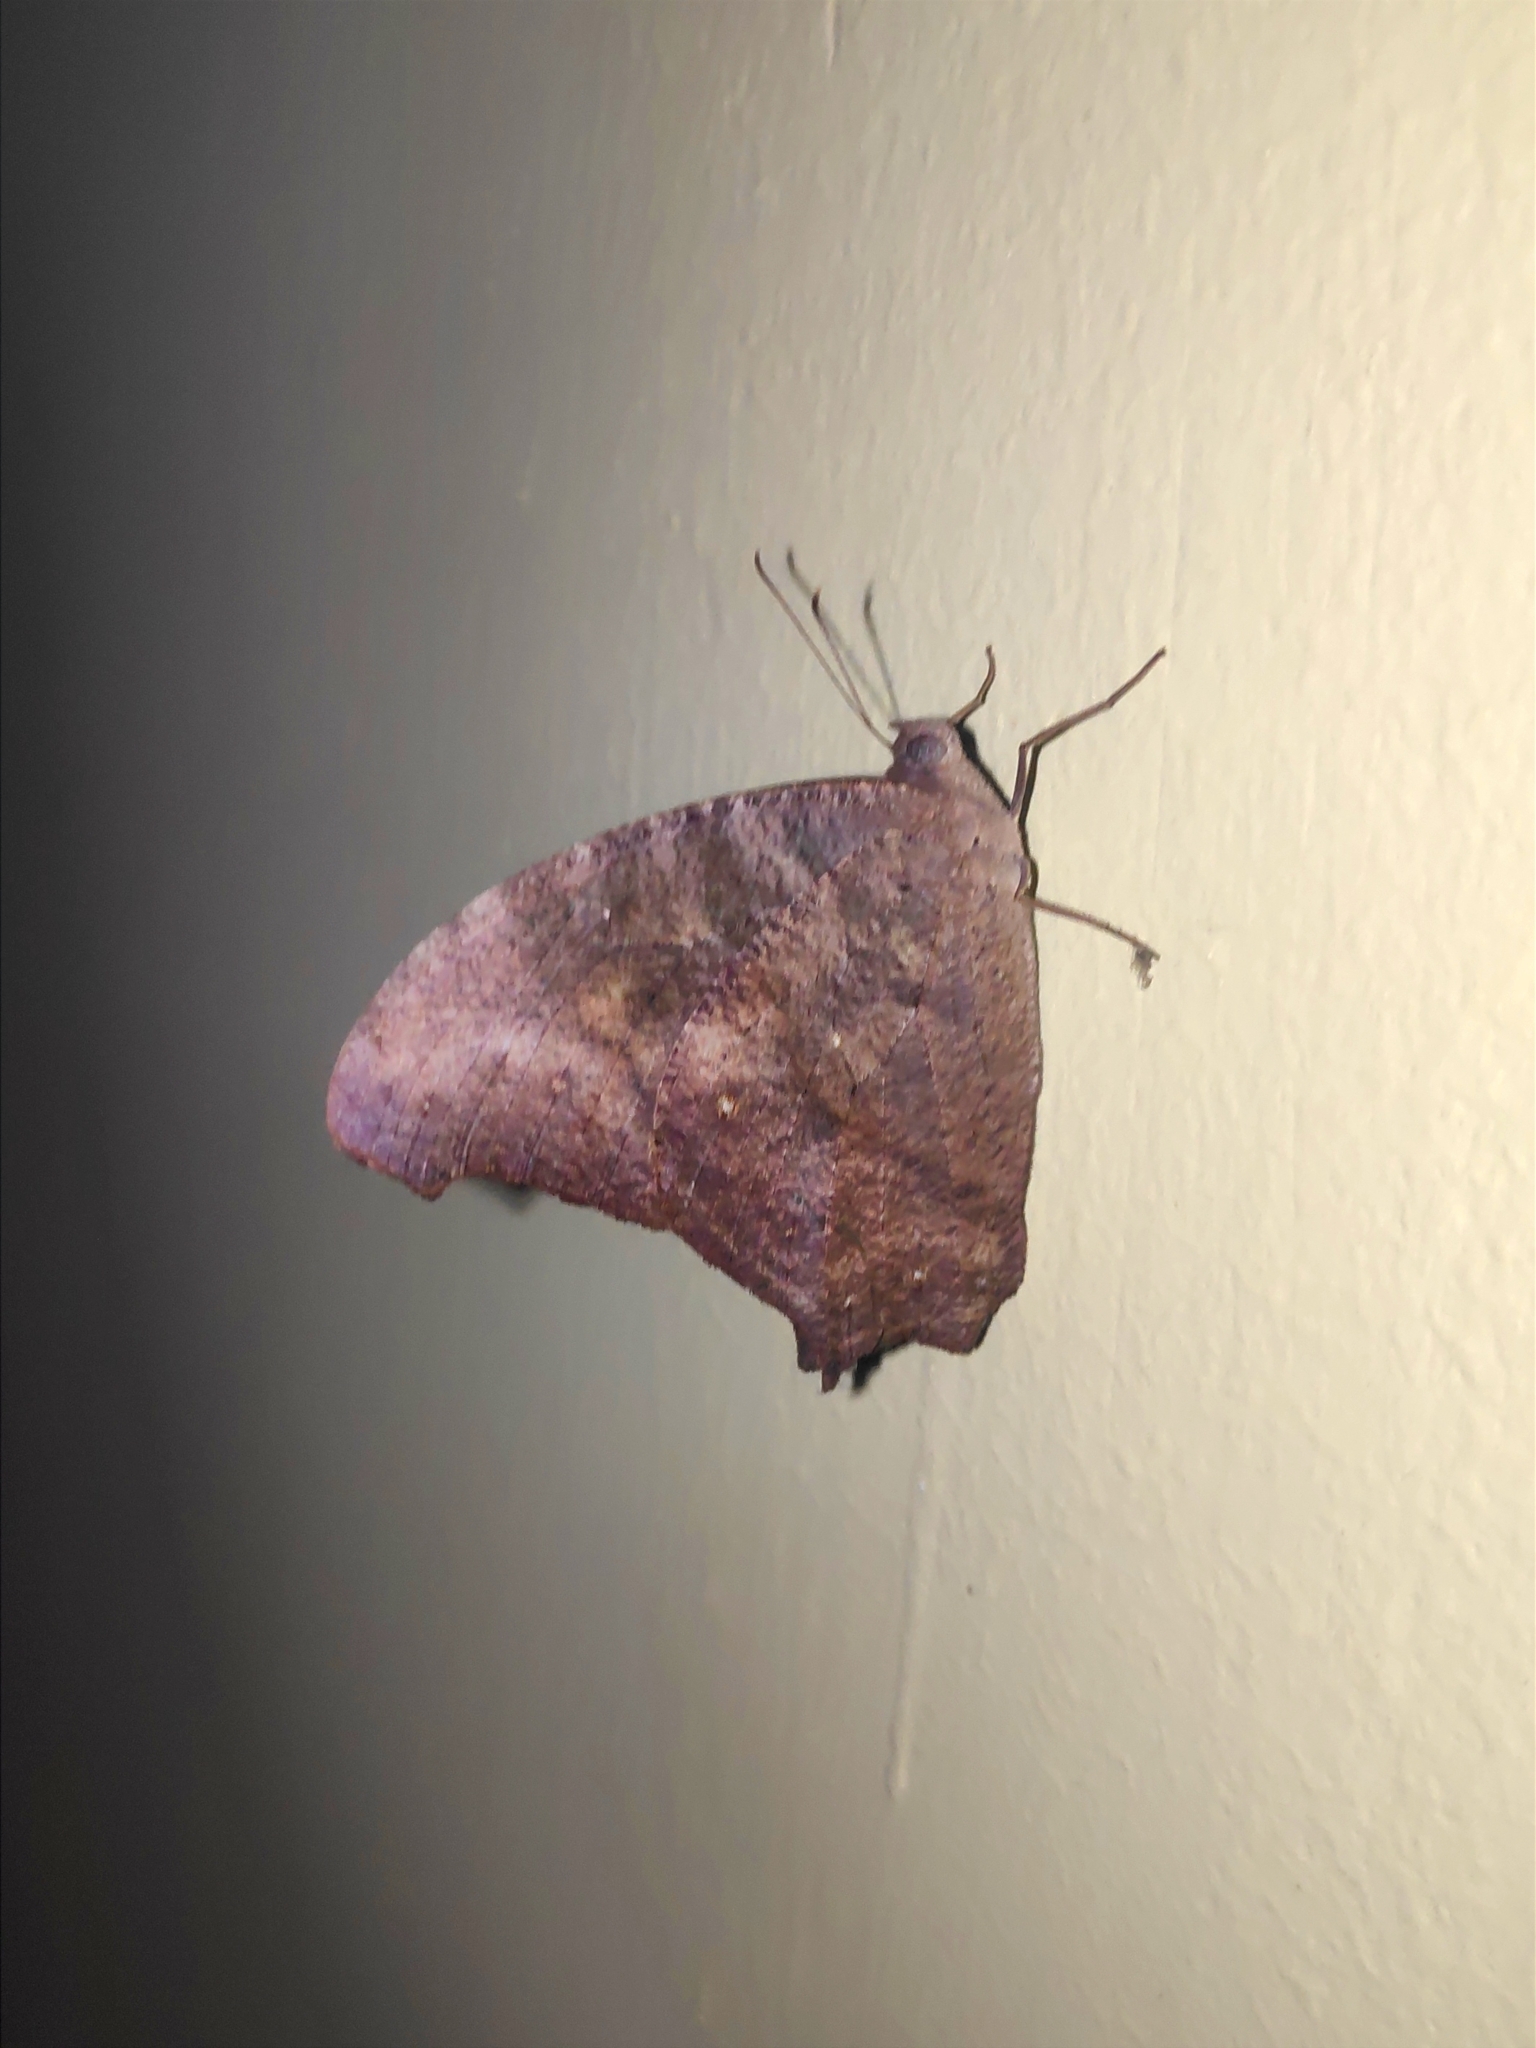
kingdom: Animalia
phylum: Arthropoda
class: Insecta
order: Lepidoptera
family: Nymphalidae
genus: Melanitis
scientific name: Melanitis leda
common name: Twilight brown
